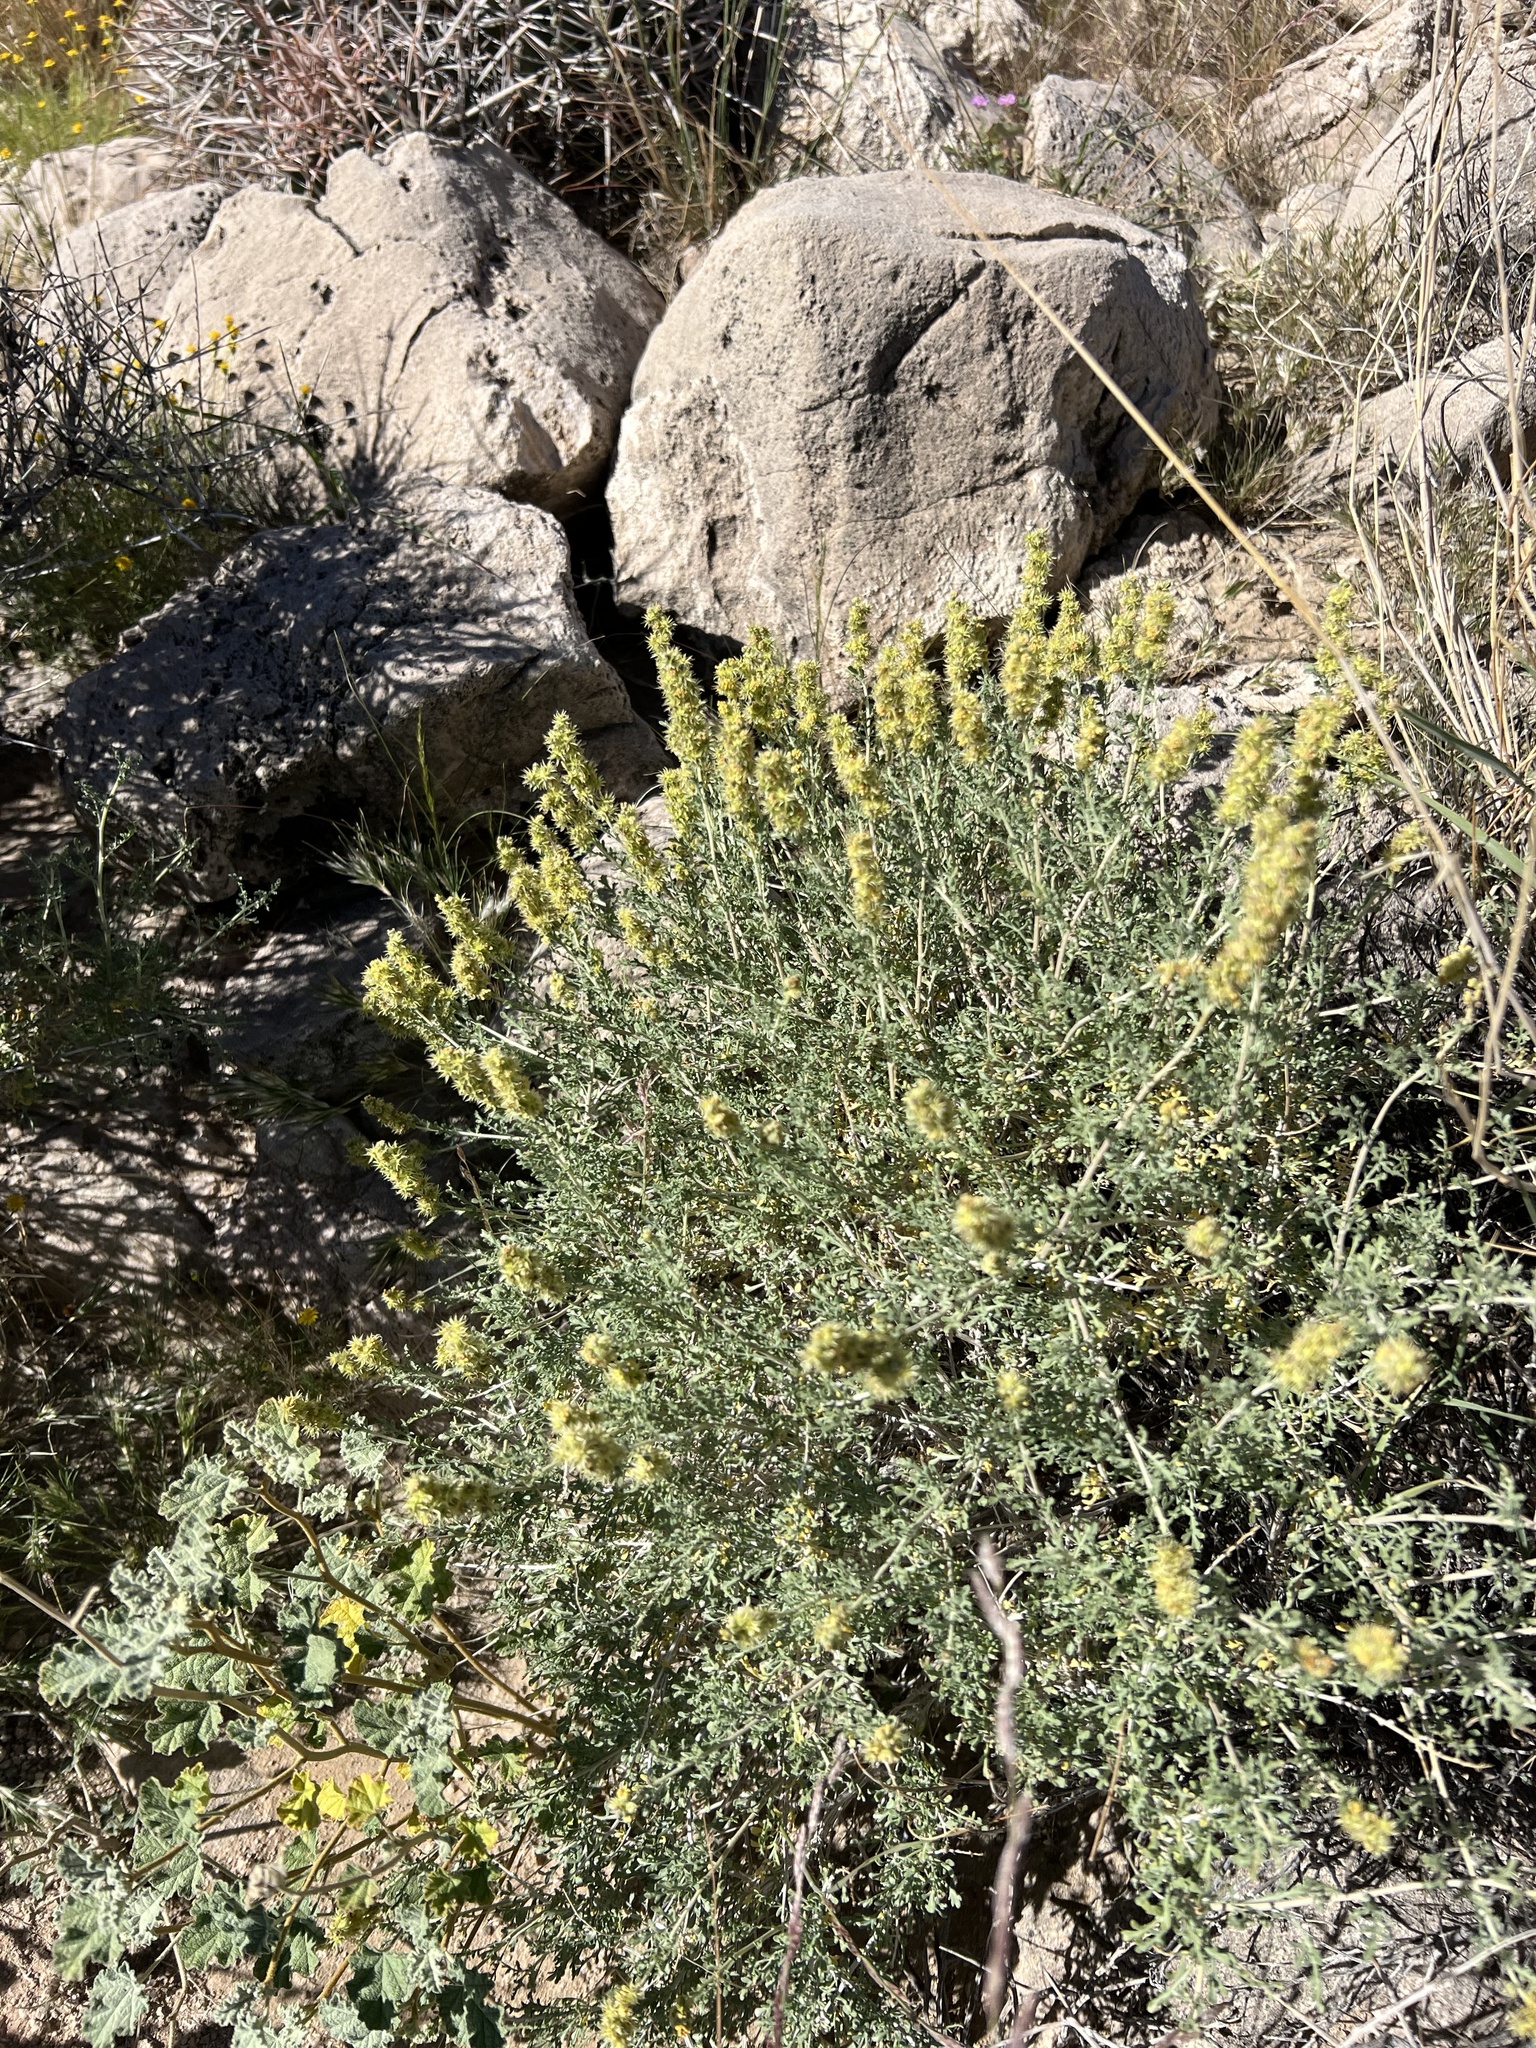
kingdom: Plantae
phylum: Tracheophyta
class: Magnoliopsida
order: Asterales
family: Asteraceae
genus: Ambrosia
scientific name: Ambrosia dumosa
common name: Bur-sage
